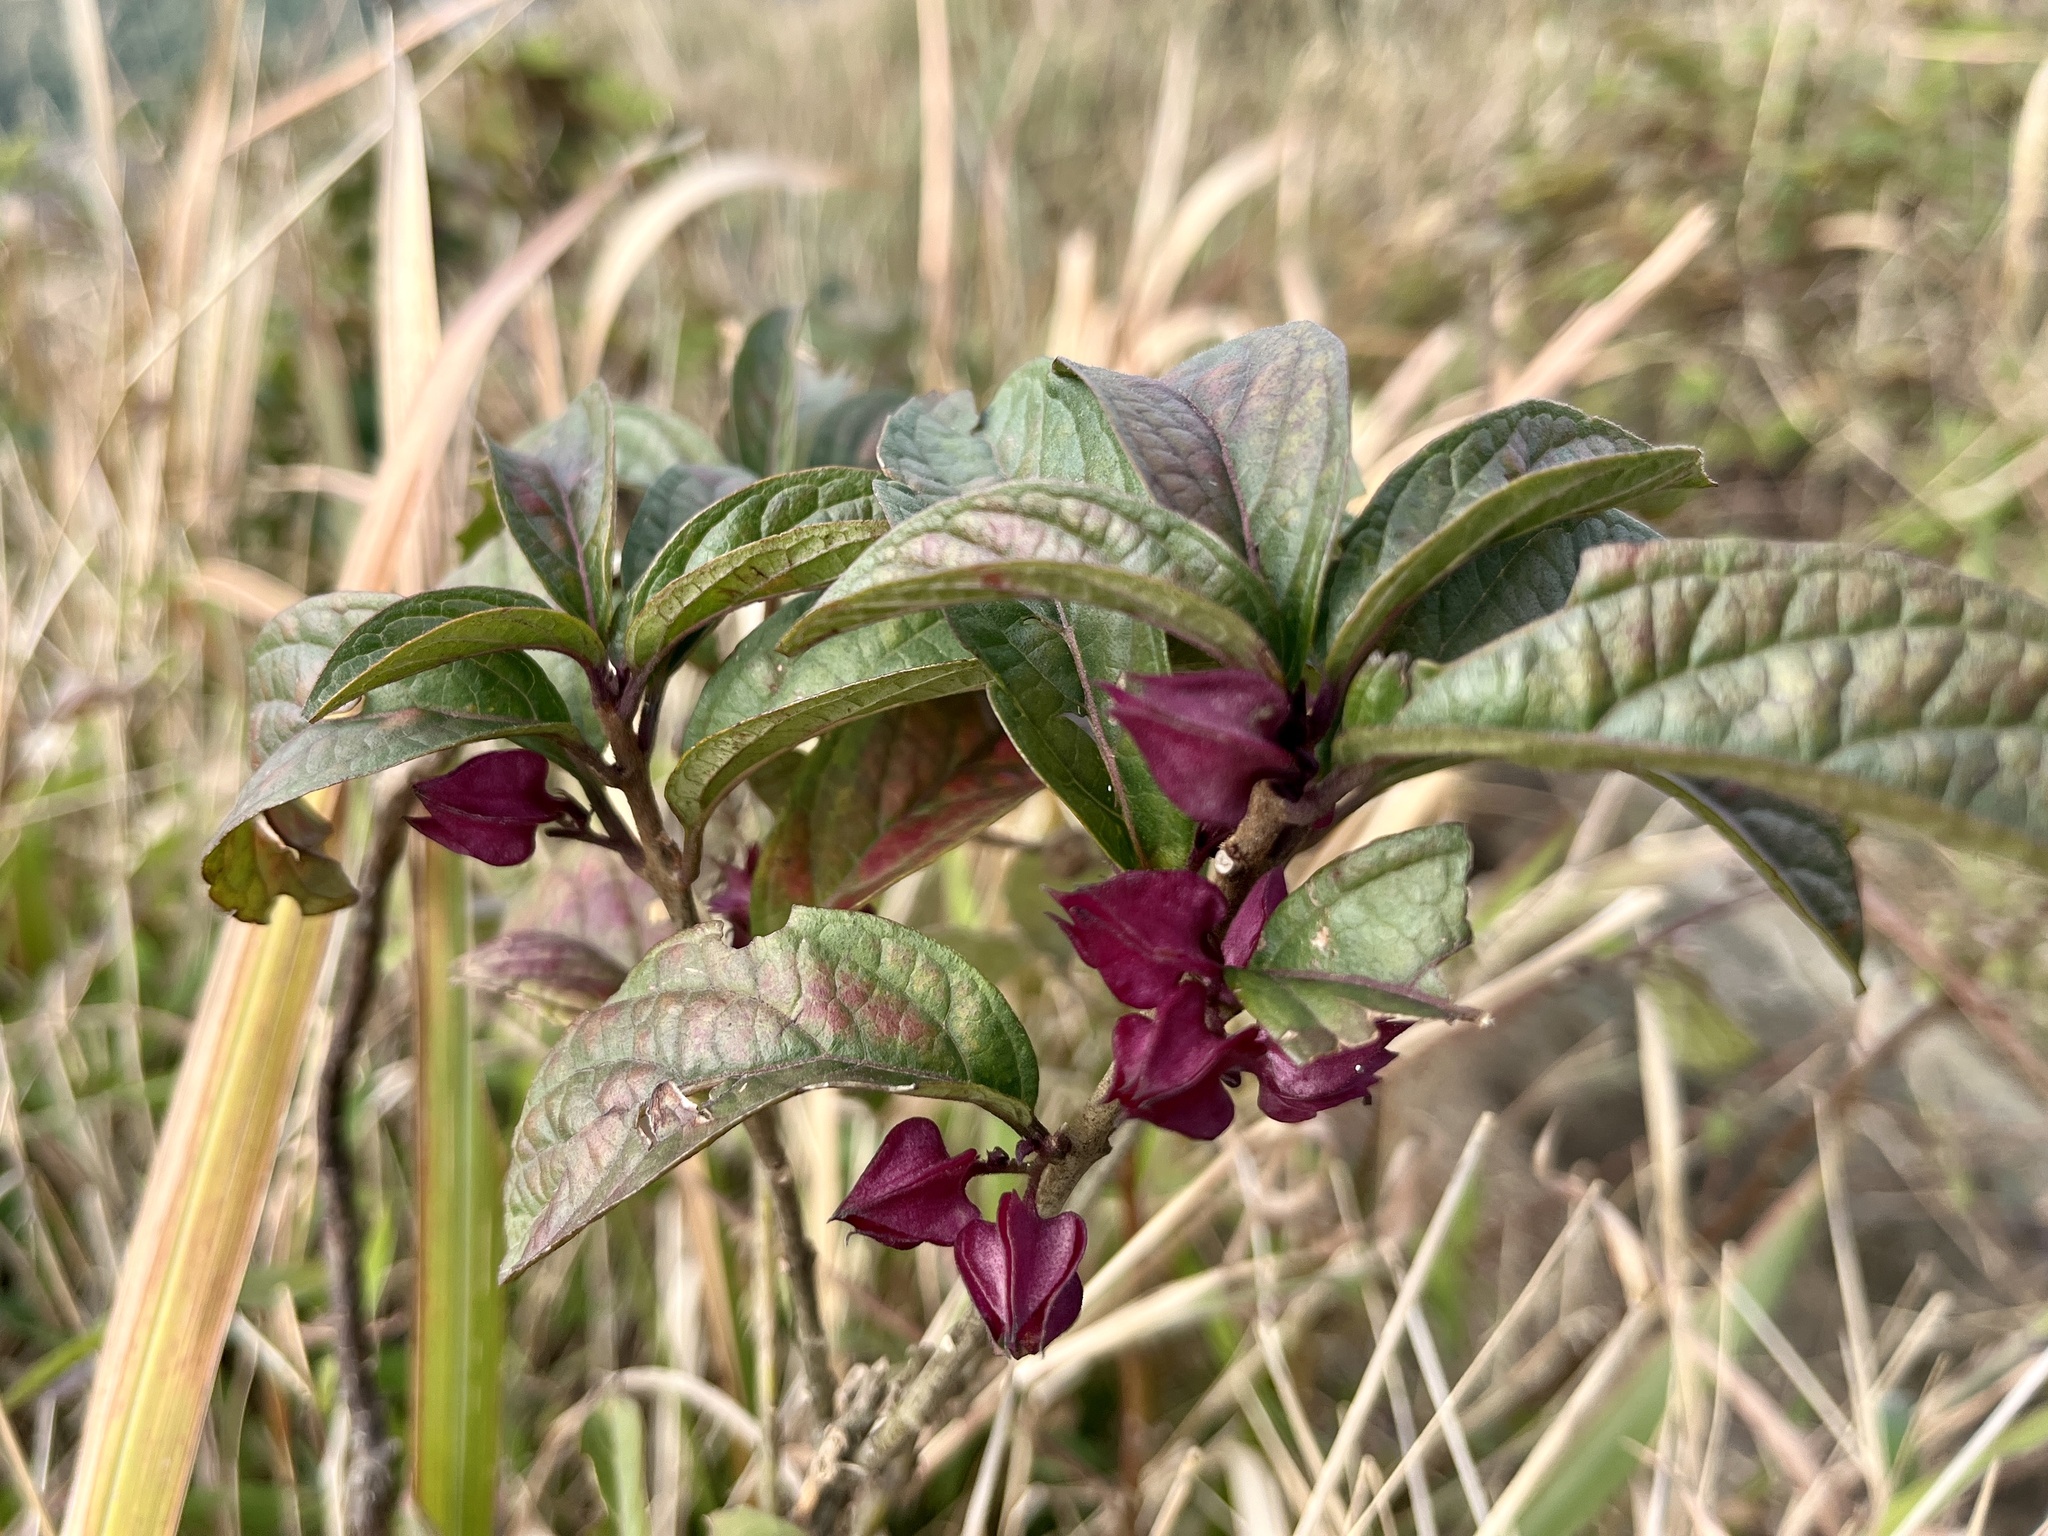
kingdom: Plantae
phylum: Tracheophyta
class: Magnoliopsida
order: Lamiales
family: Lamiaceae
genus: Clerodendrum
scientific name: Clerodendrum fortunatum
